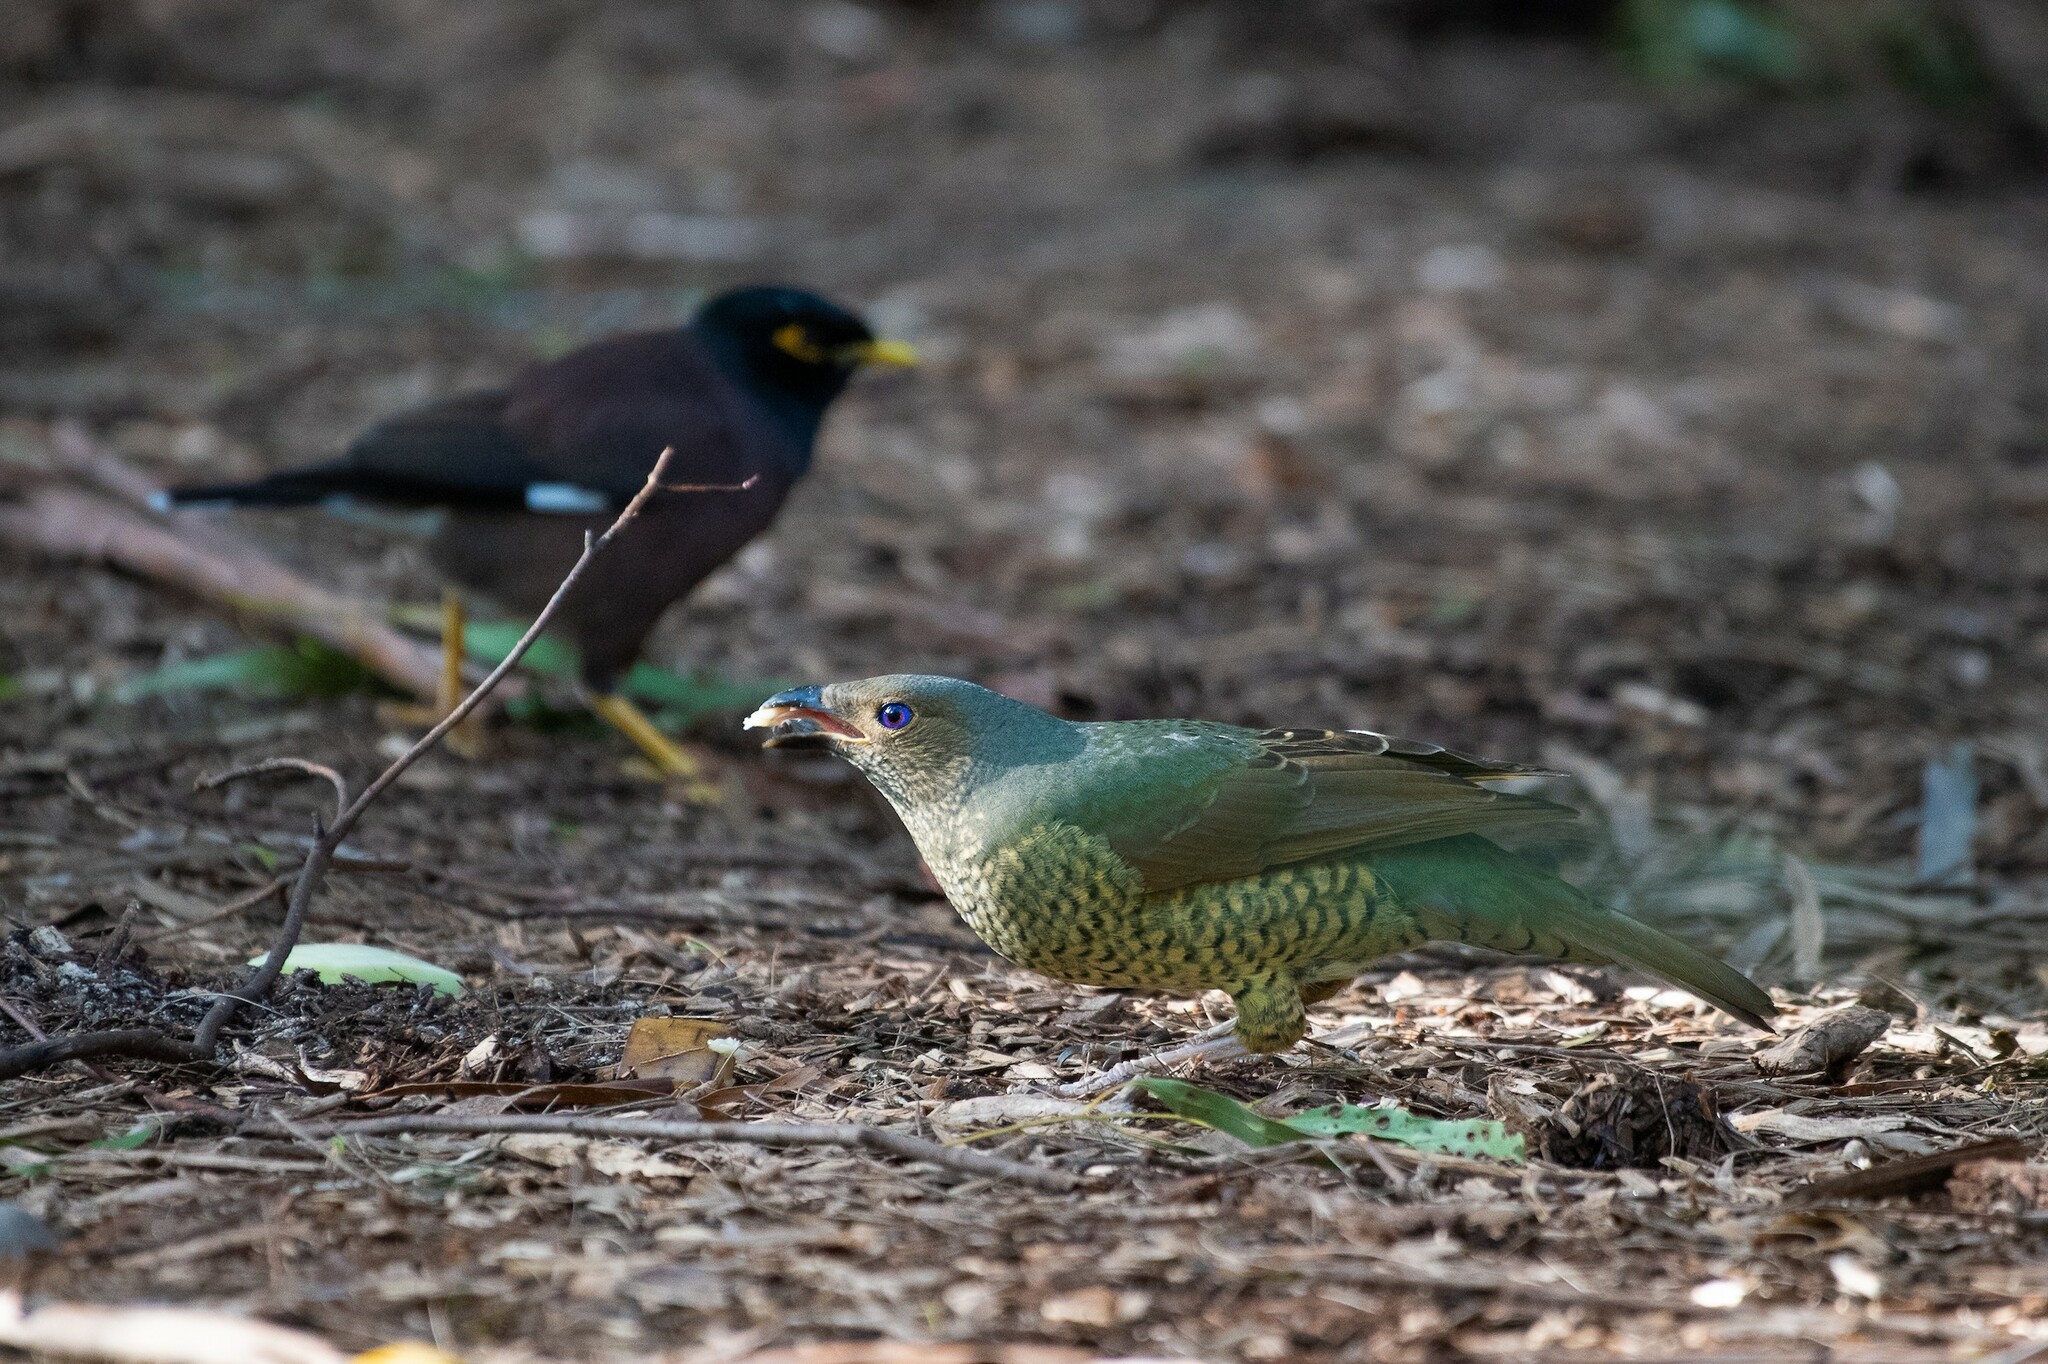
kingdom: Animalia
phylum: Chordata
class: Aves
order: Passeriformes
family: Ptilonorhynchidae
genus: Ptilonorhynchus
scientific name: Ptilonorhynchus violaceus
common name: Satin bowerbird
